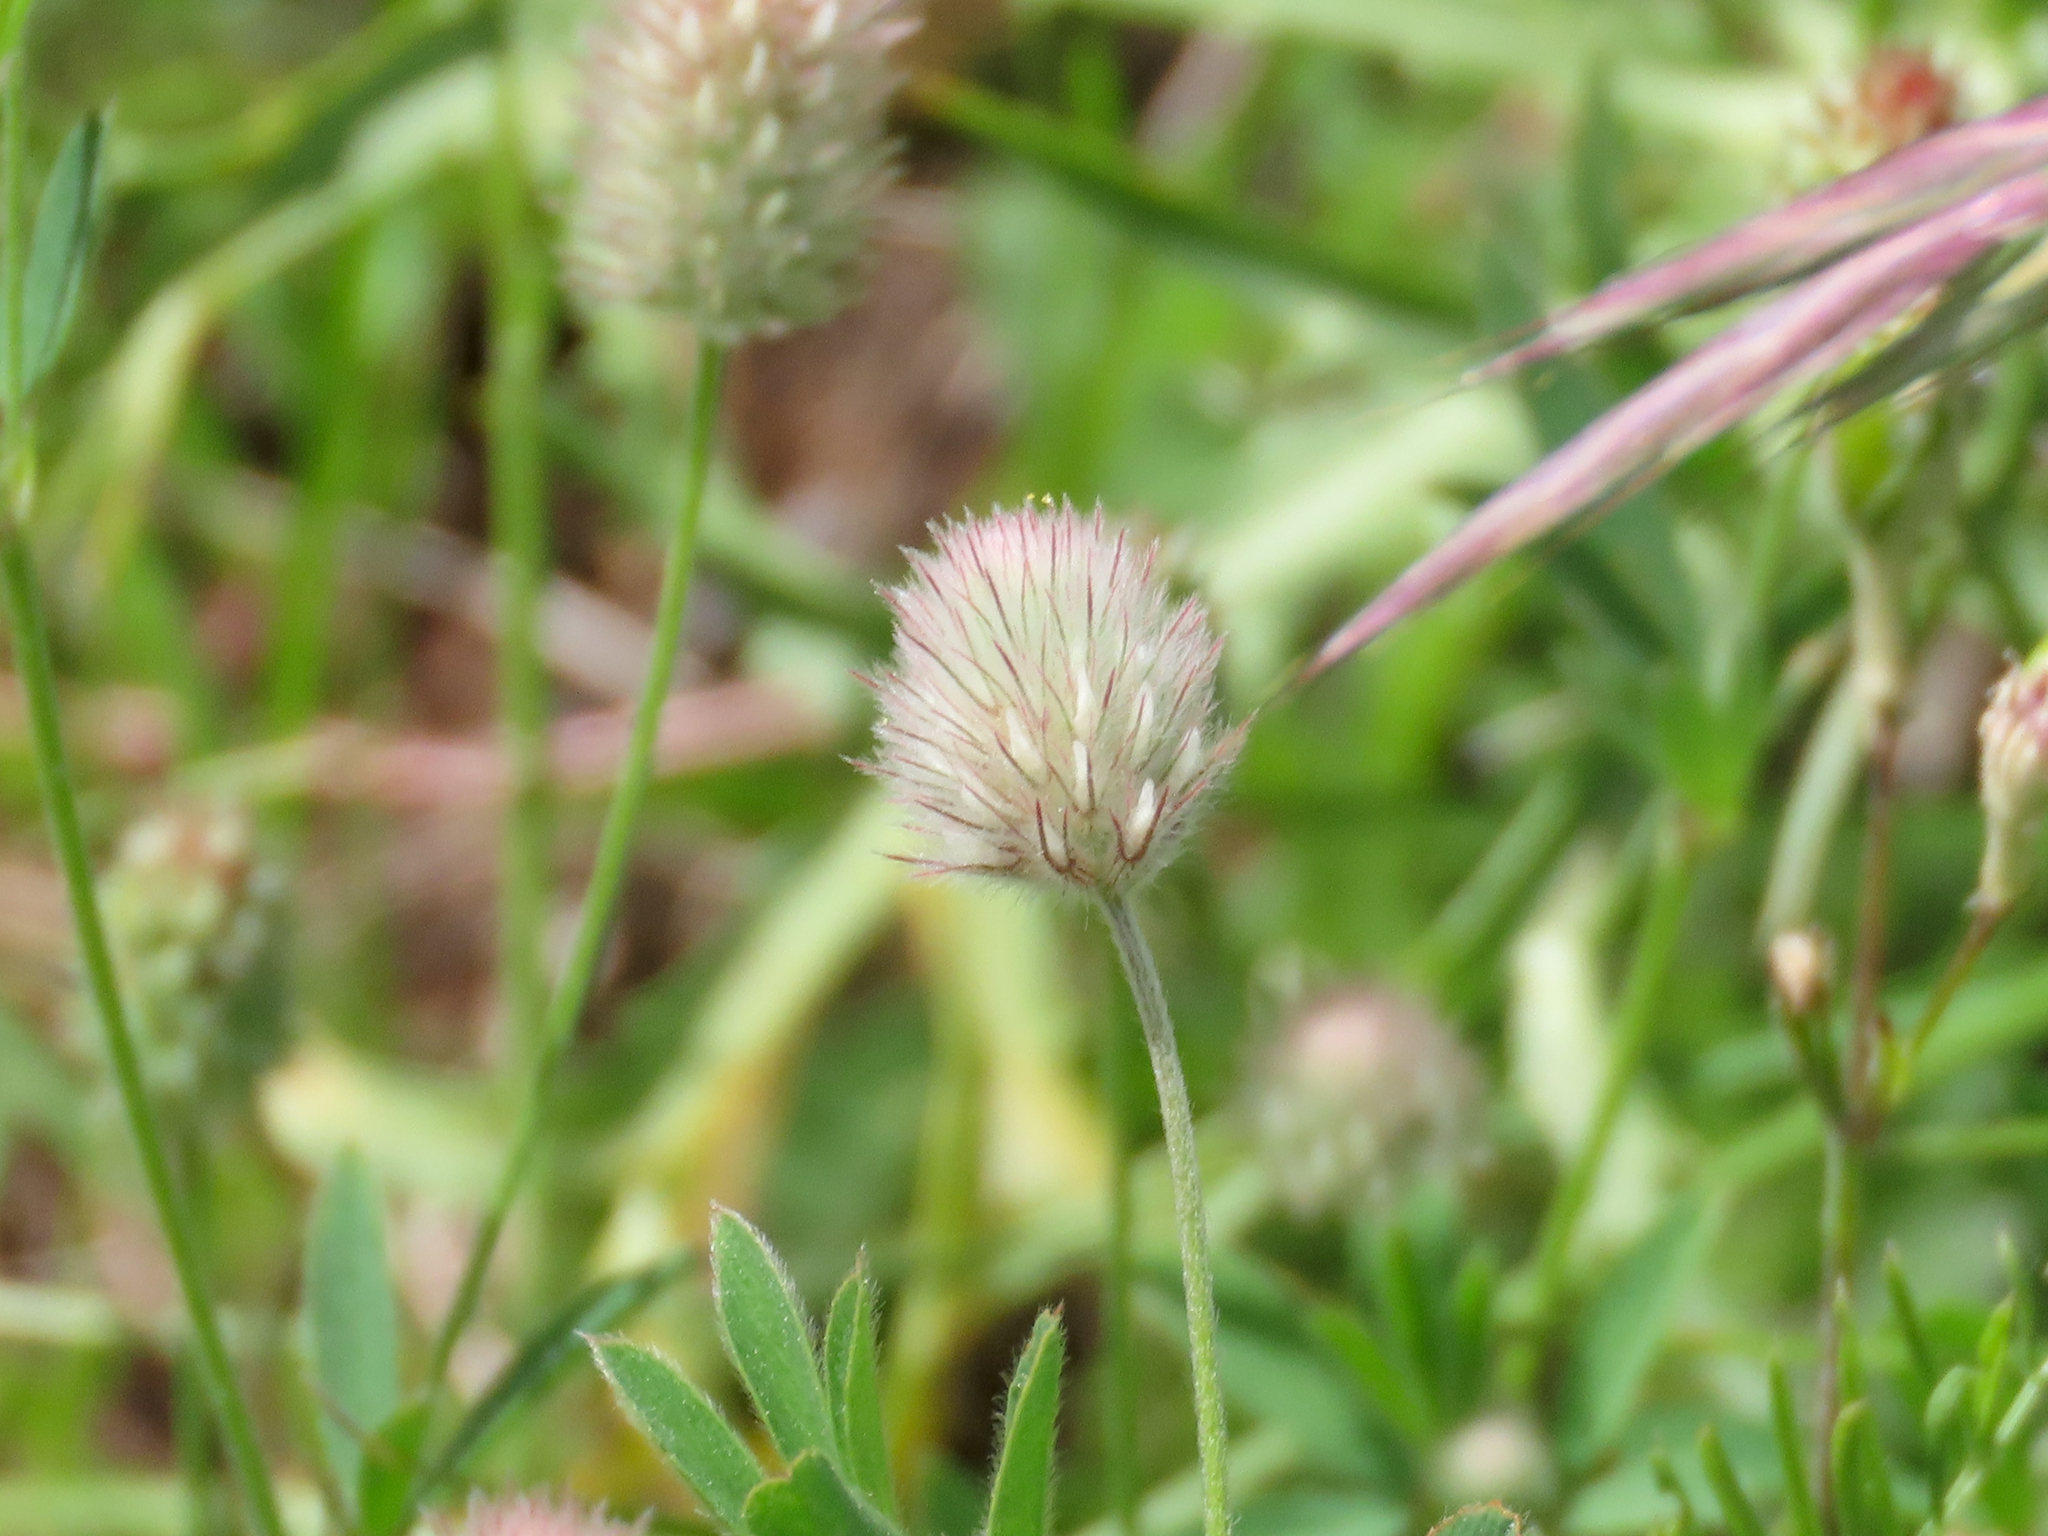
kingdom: Plantae
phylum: Tracheophyta
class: Magnoliopsida
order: Fabales
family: Fabaceae
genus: Trifolium
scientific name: Trifolium arvense
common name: Hare's-foot clover
